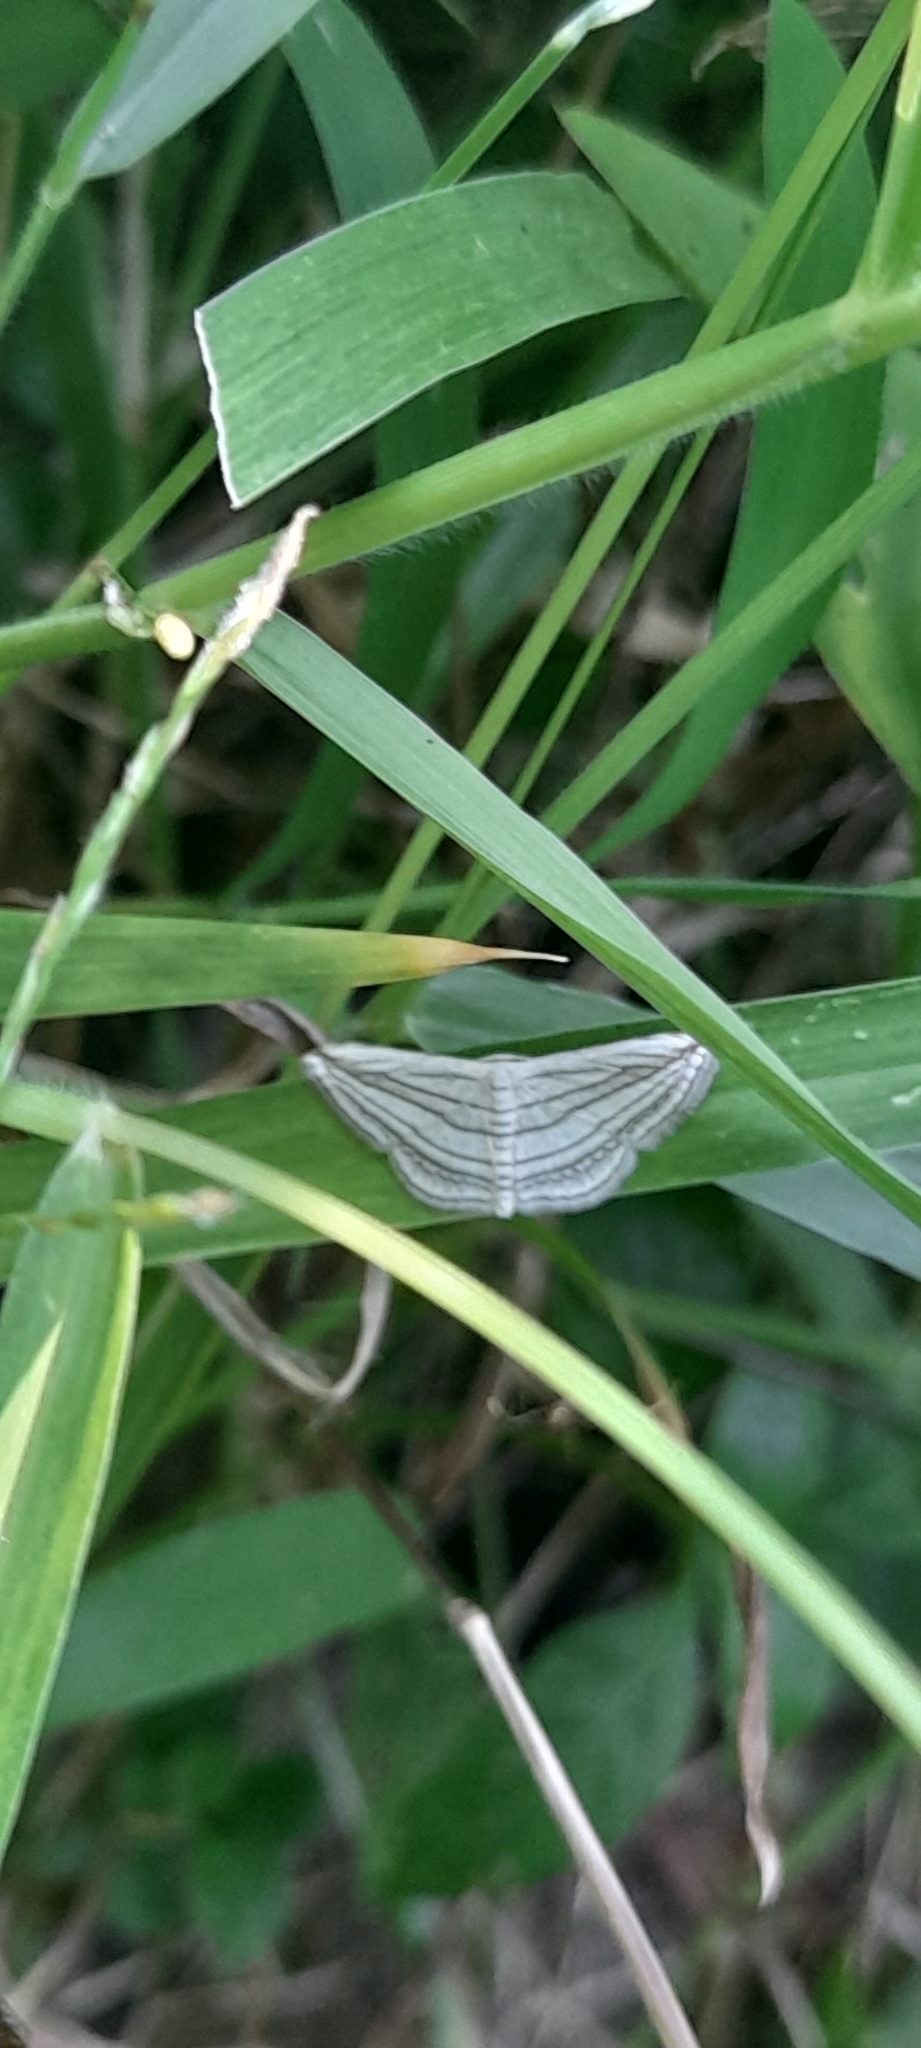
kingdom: Animalia
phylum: Arthropoda
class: Insecta
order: Lepidoptera
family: Geometridae
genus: Scopula
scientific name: Scopula opicata
